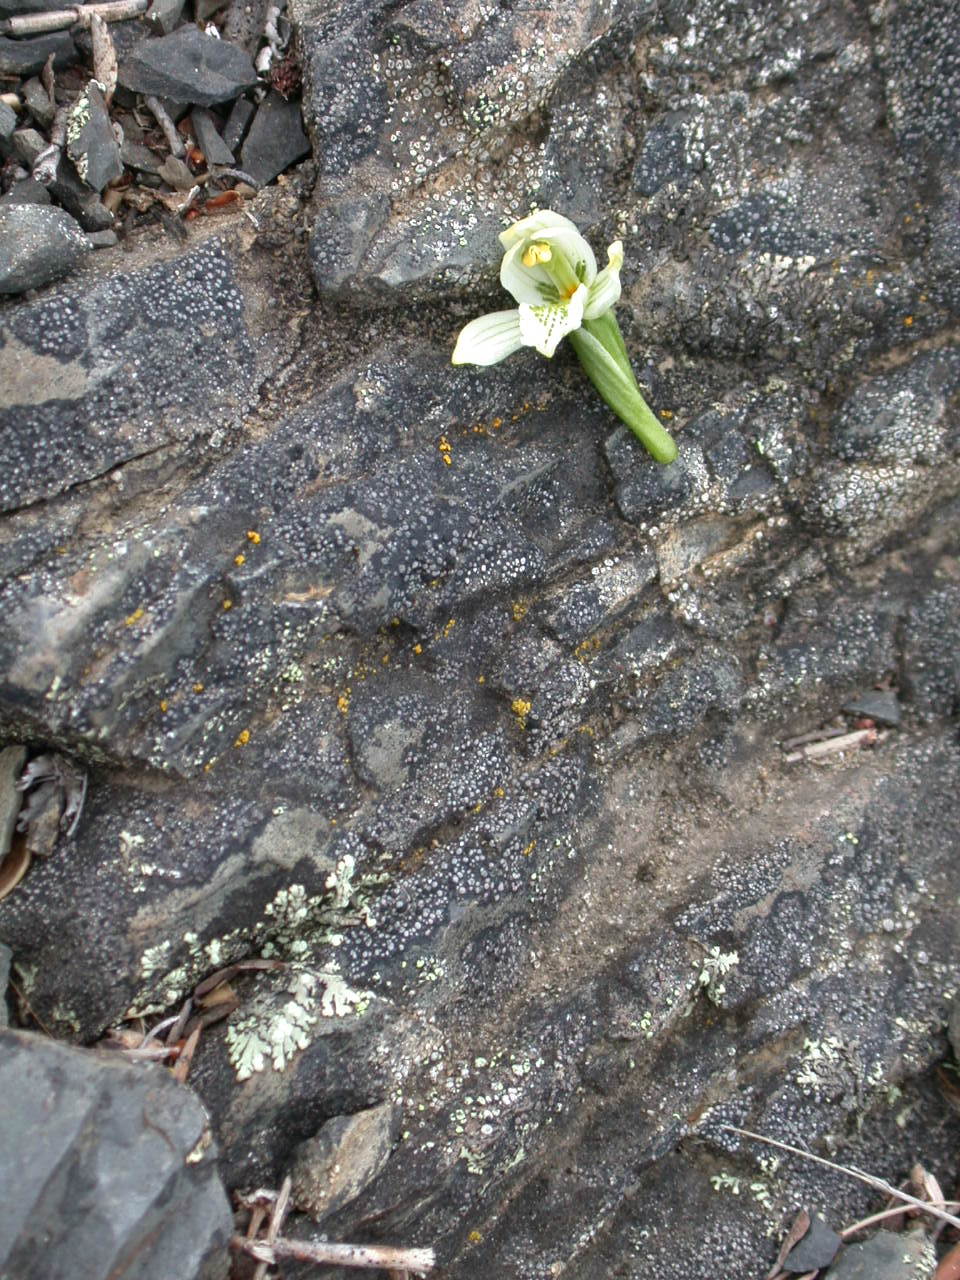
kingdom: Plantae
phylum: Tracheophyta
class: Liliopsida
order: Asparagales
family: Orchidaceae
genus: Gavilea
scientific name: Gavilea chica
